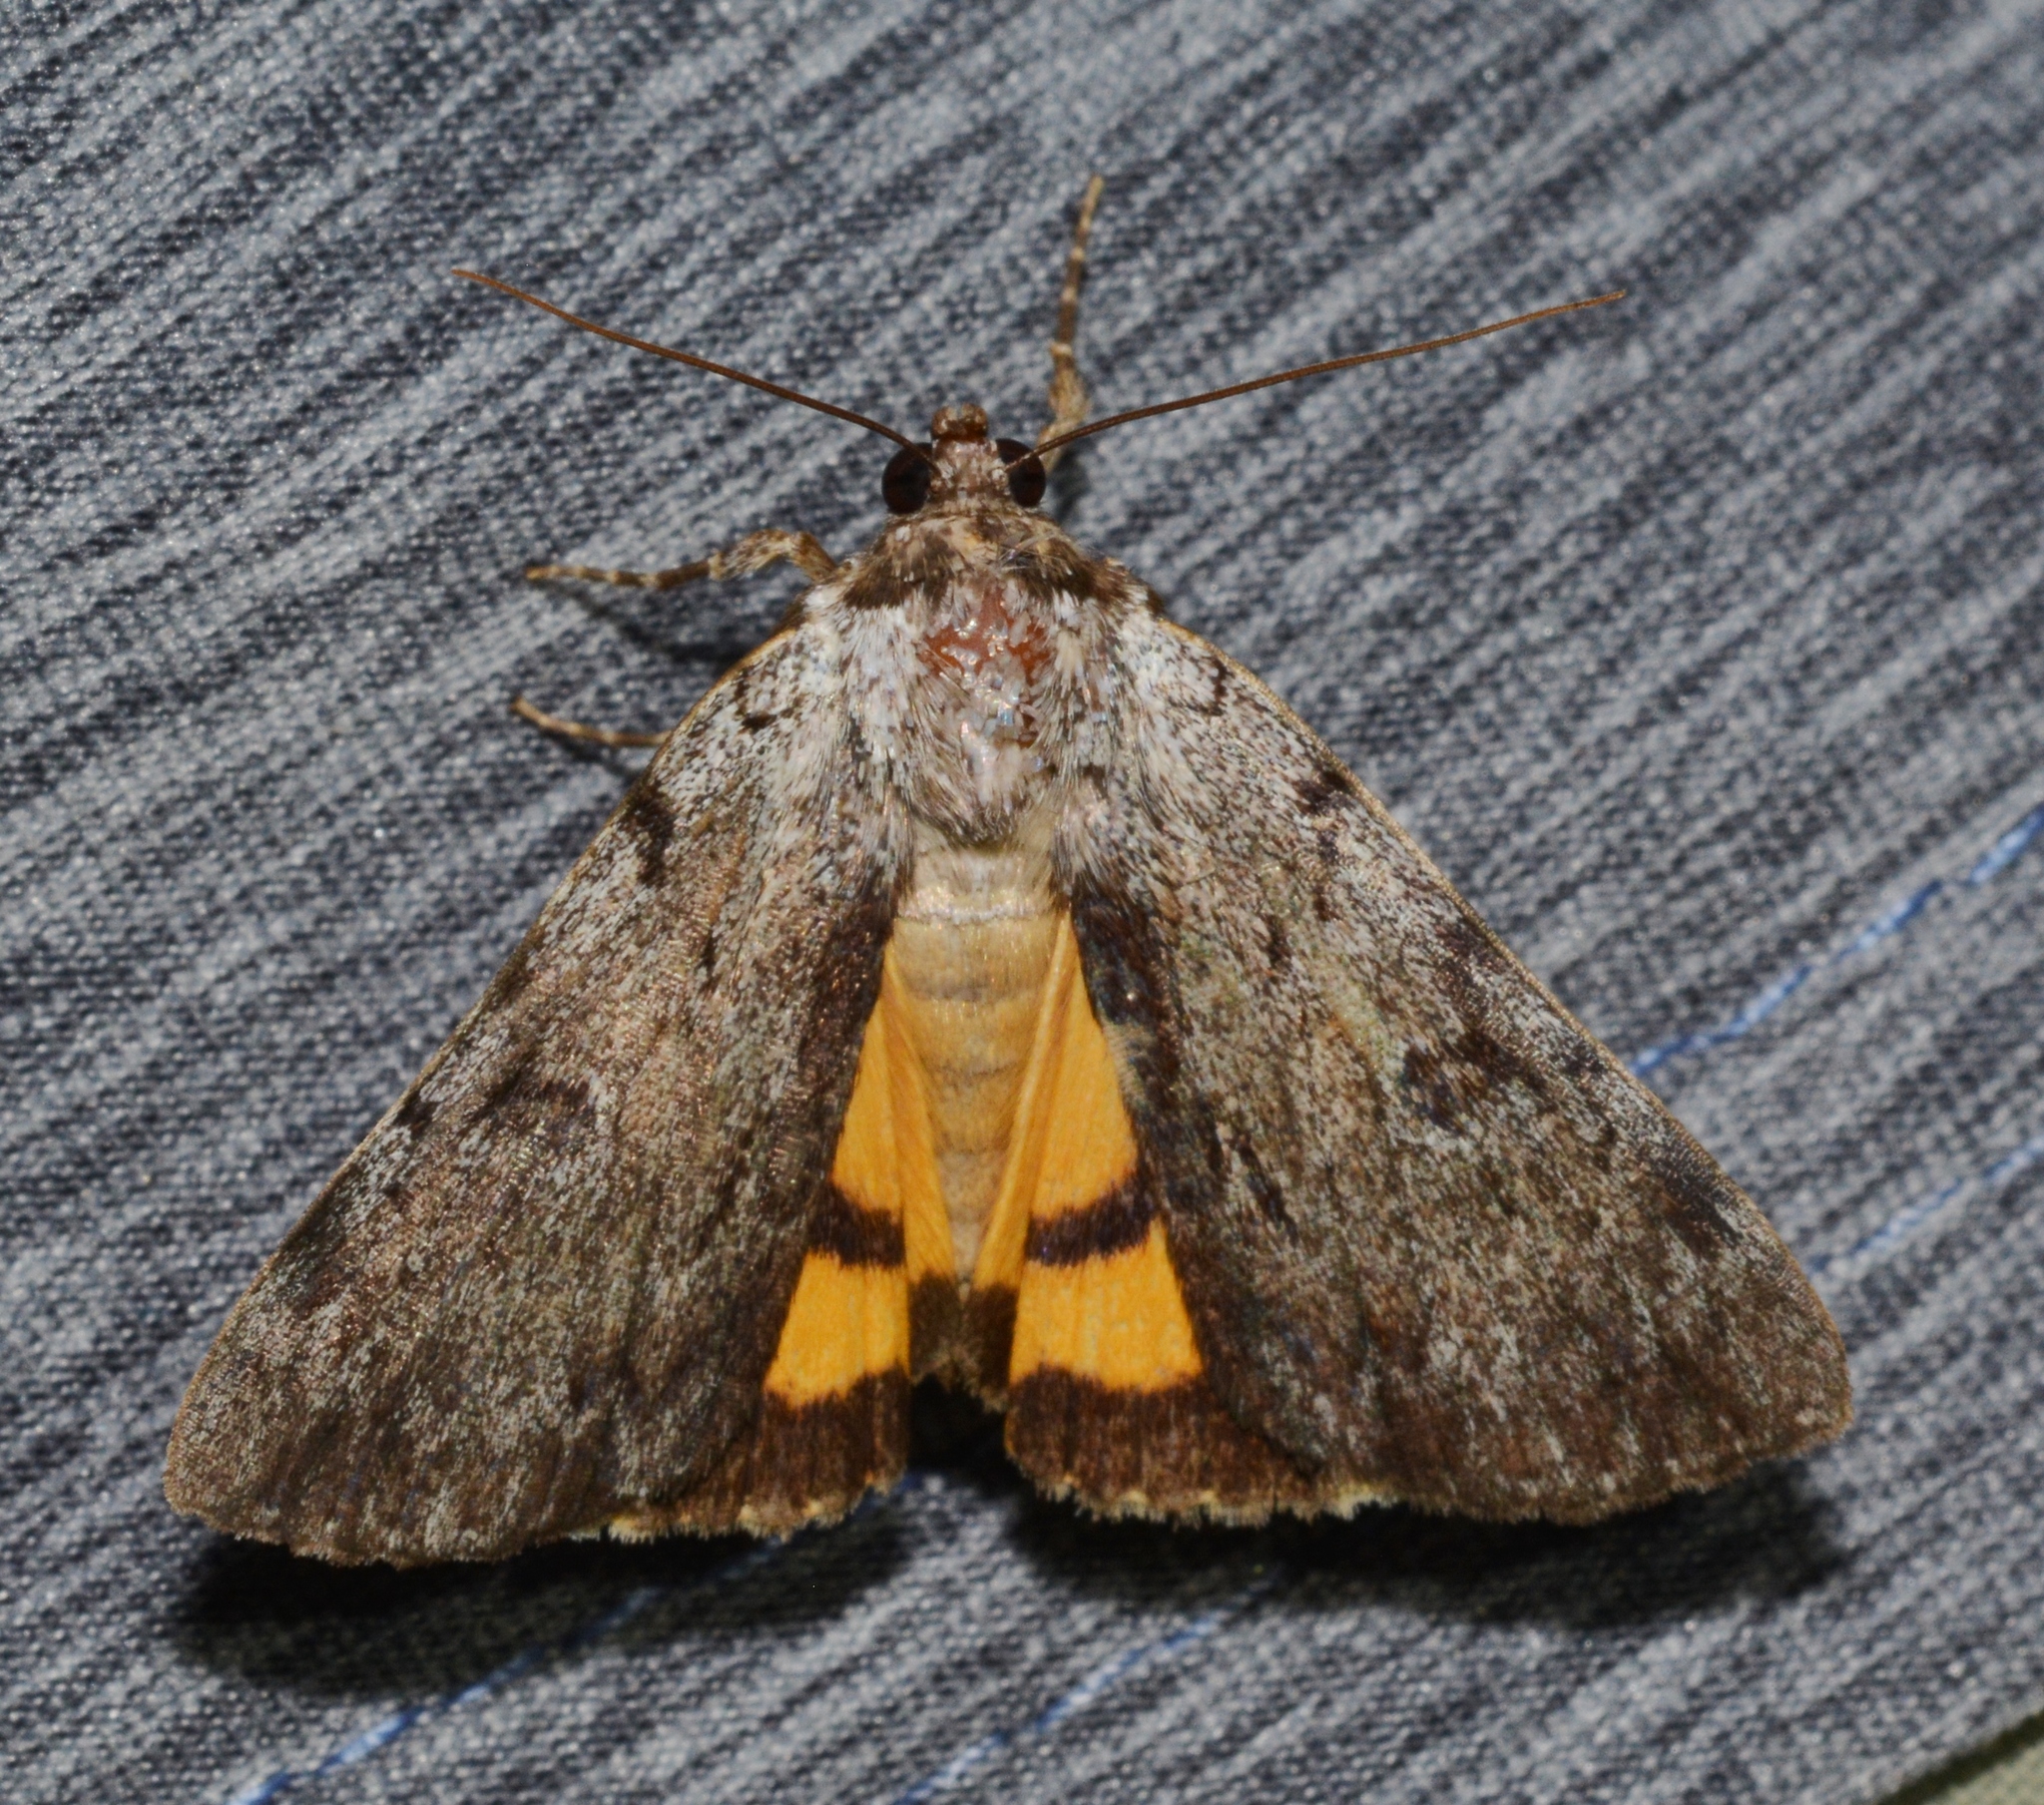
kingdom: Animalia
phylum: Arthropoda
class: Insecta
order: Lepidoptera
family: Erebidae
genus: Catocala
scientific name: Catocala sordida
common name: Sordid underwing
